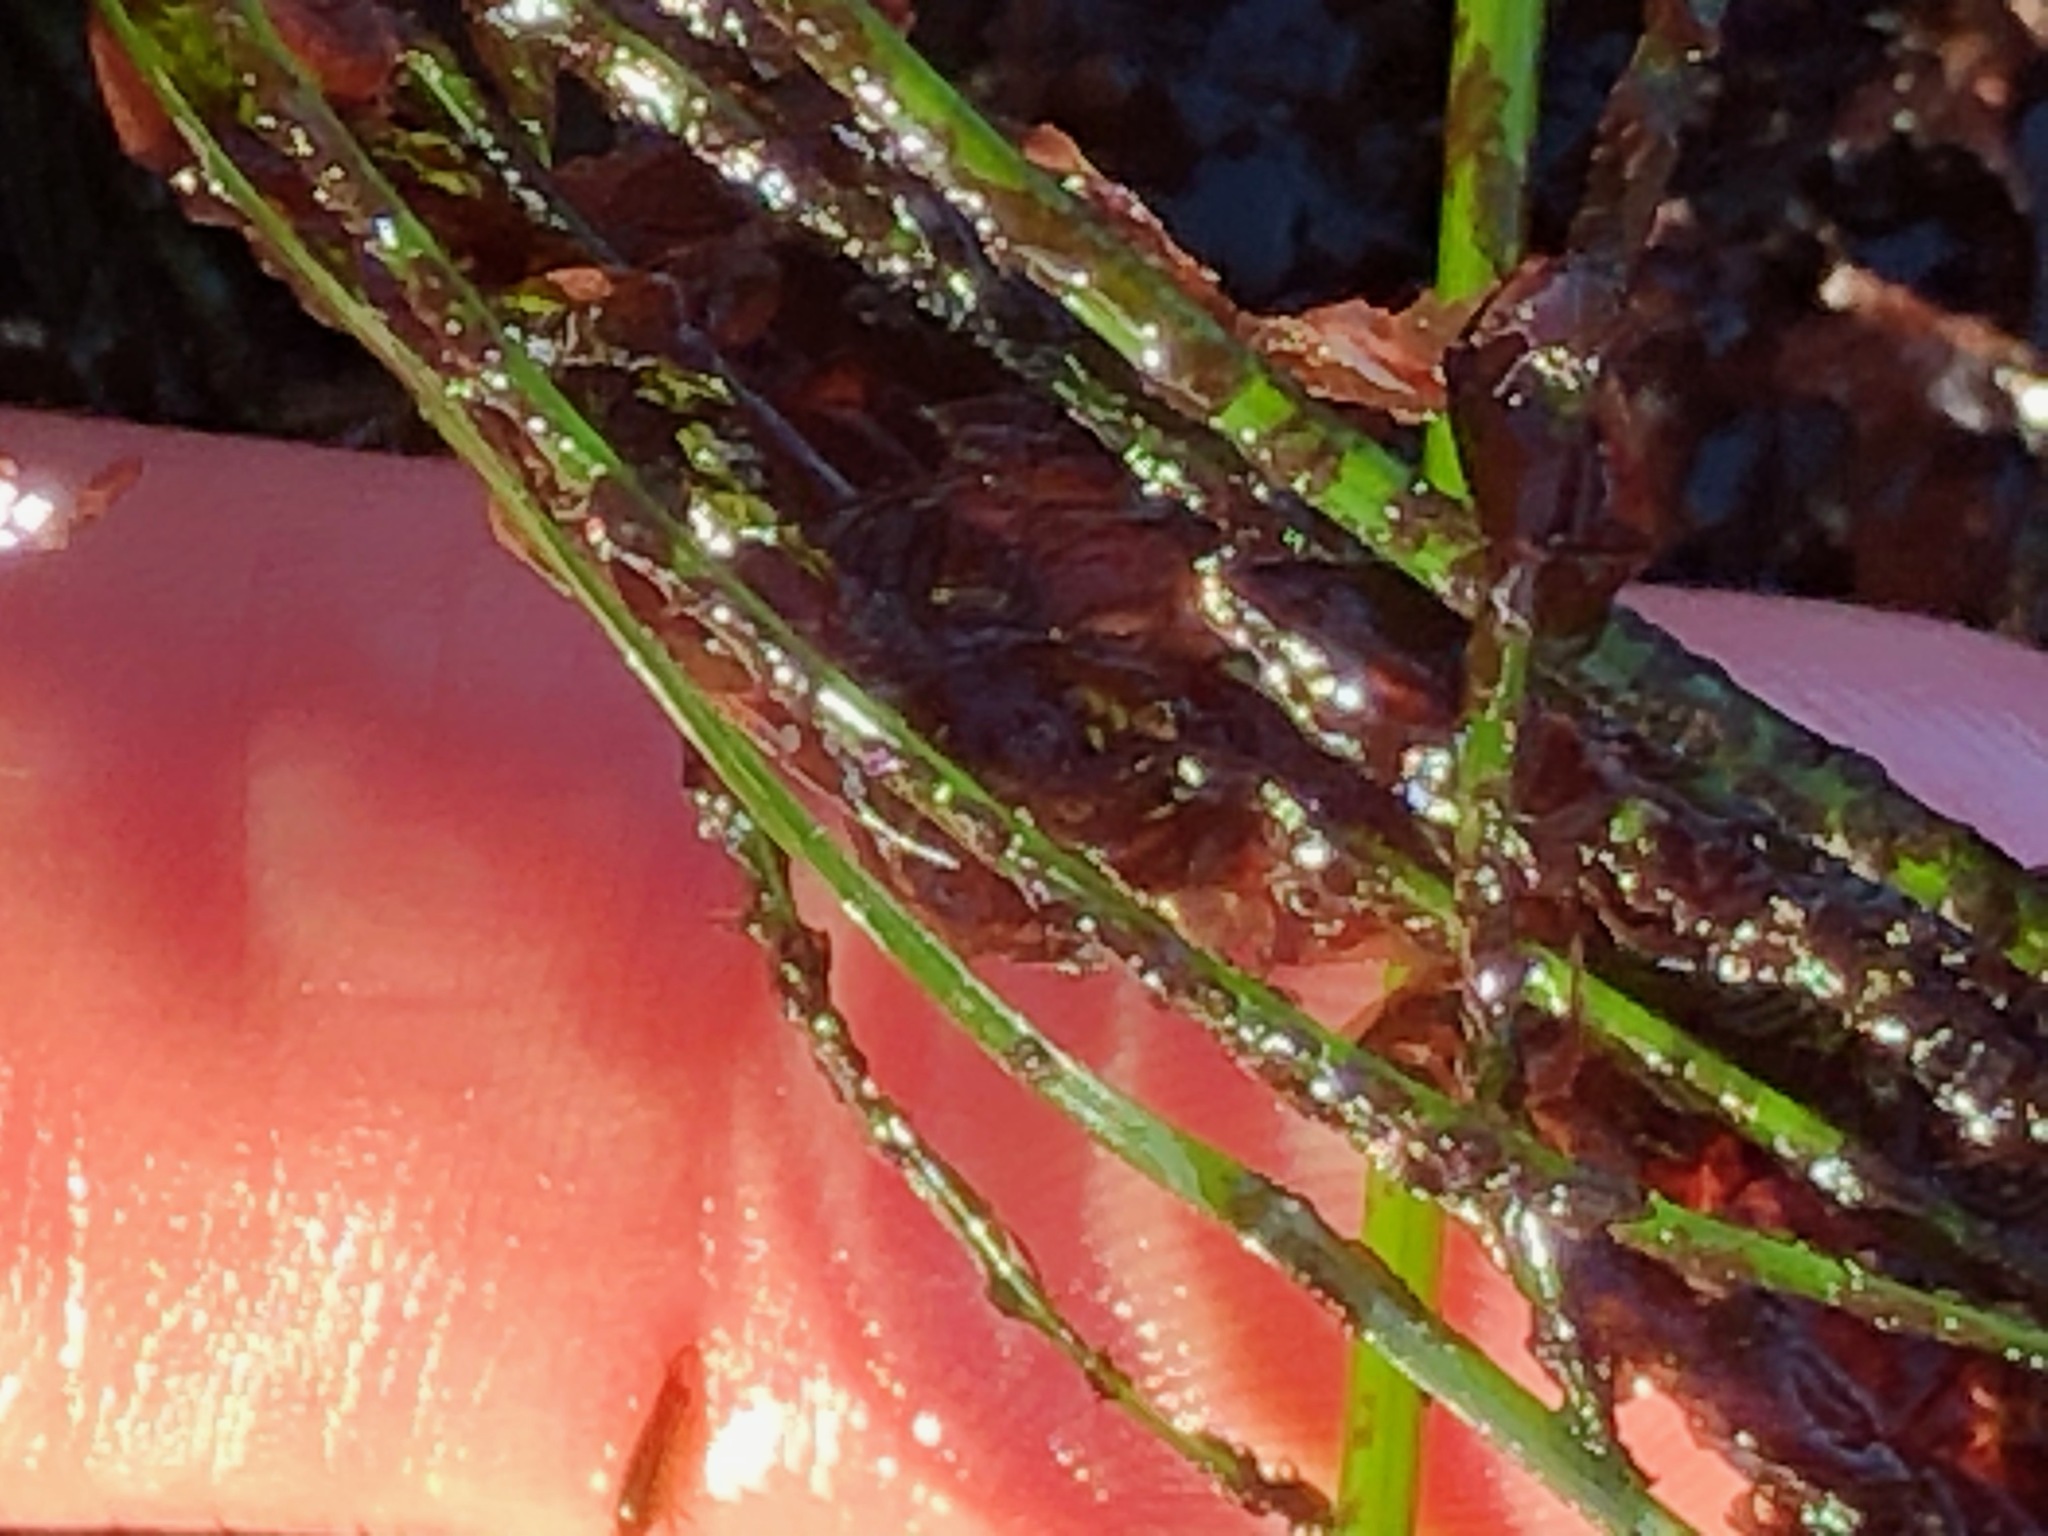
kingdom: Plantae
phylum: Rhodophyta
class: Compsopogonophyceae
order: Erythropeltidales
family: Erythrotrichiaceae
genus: Smithora
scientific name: Smithora naiadum
